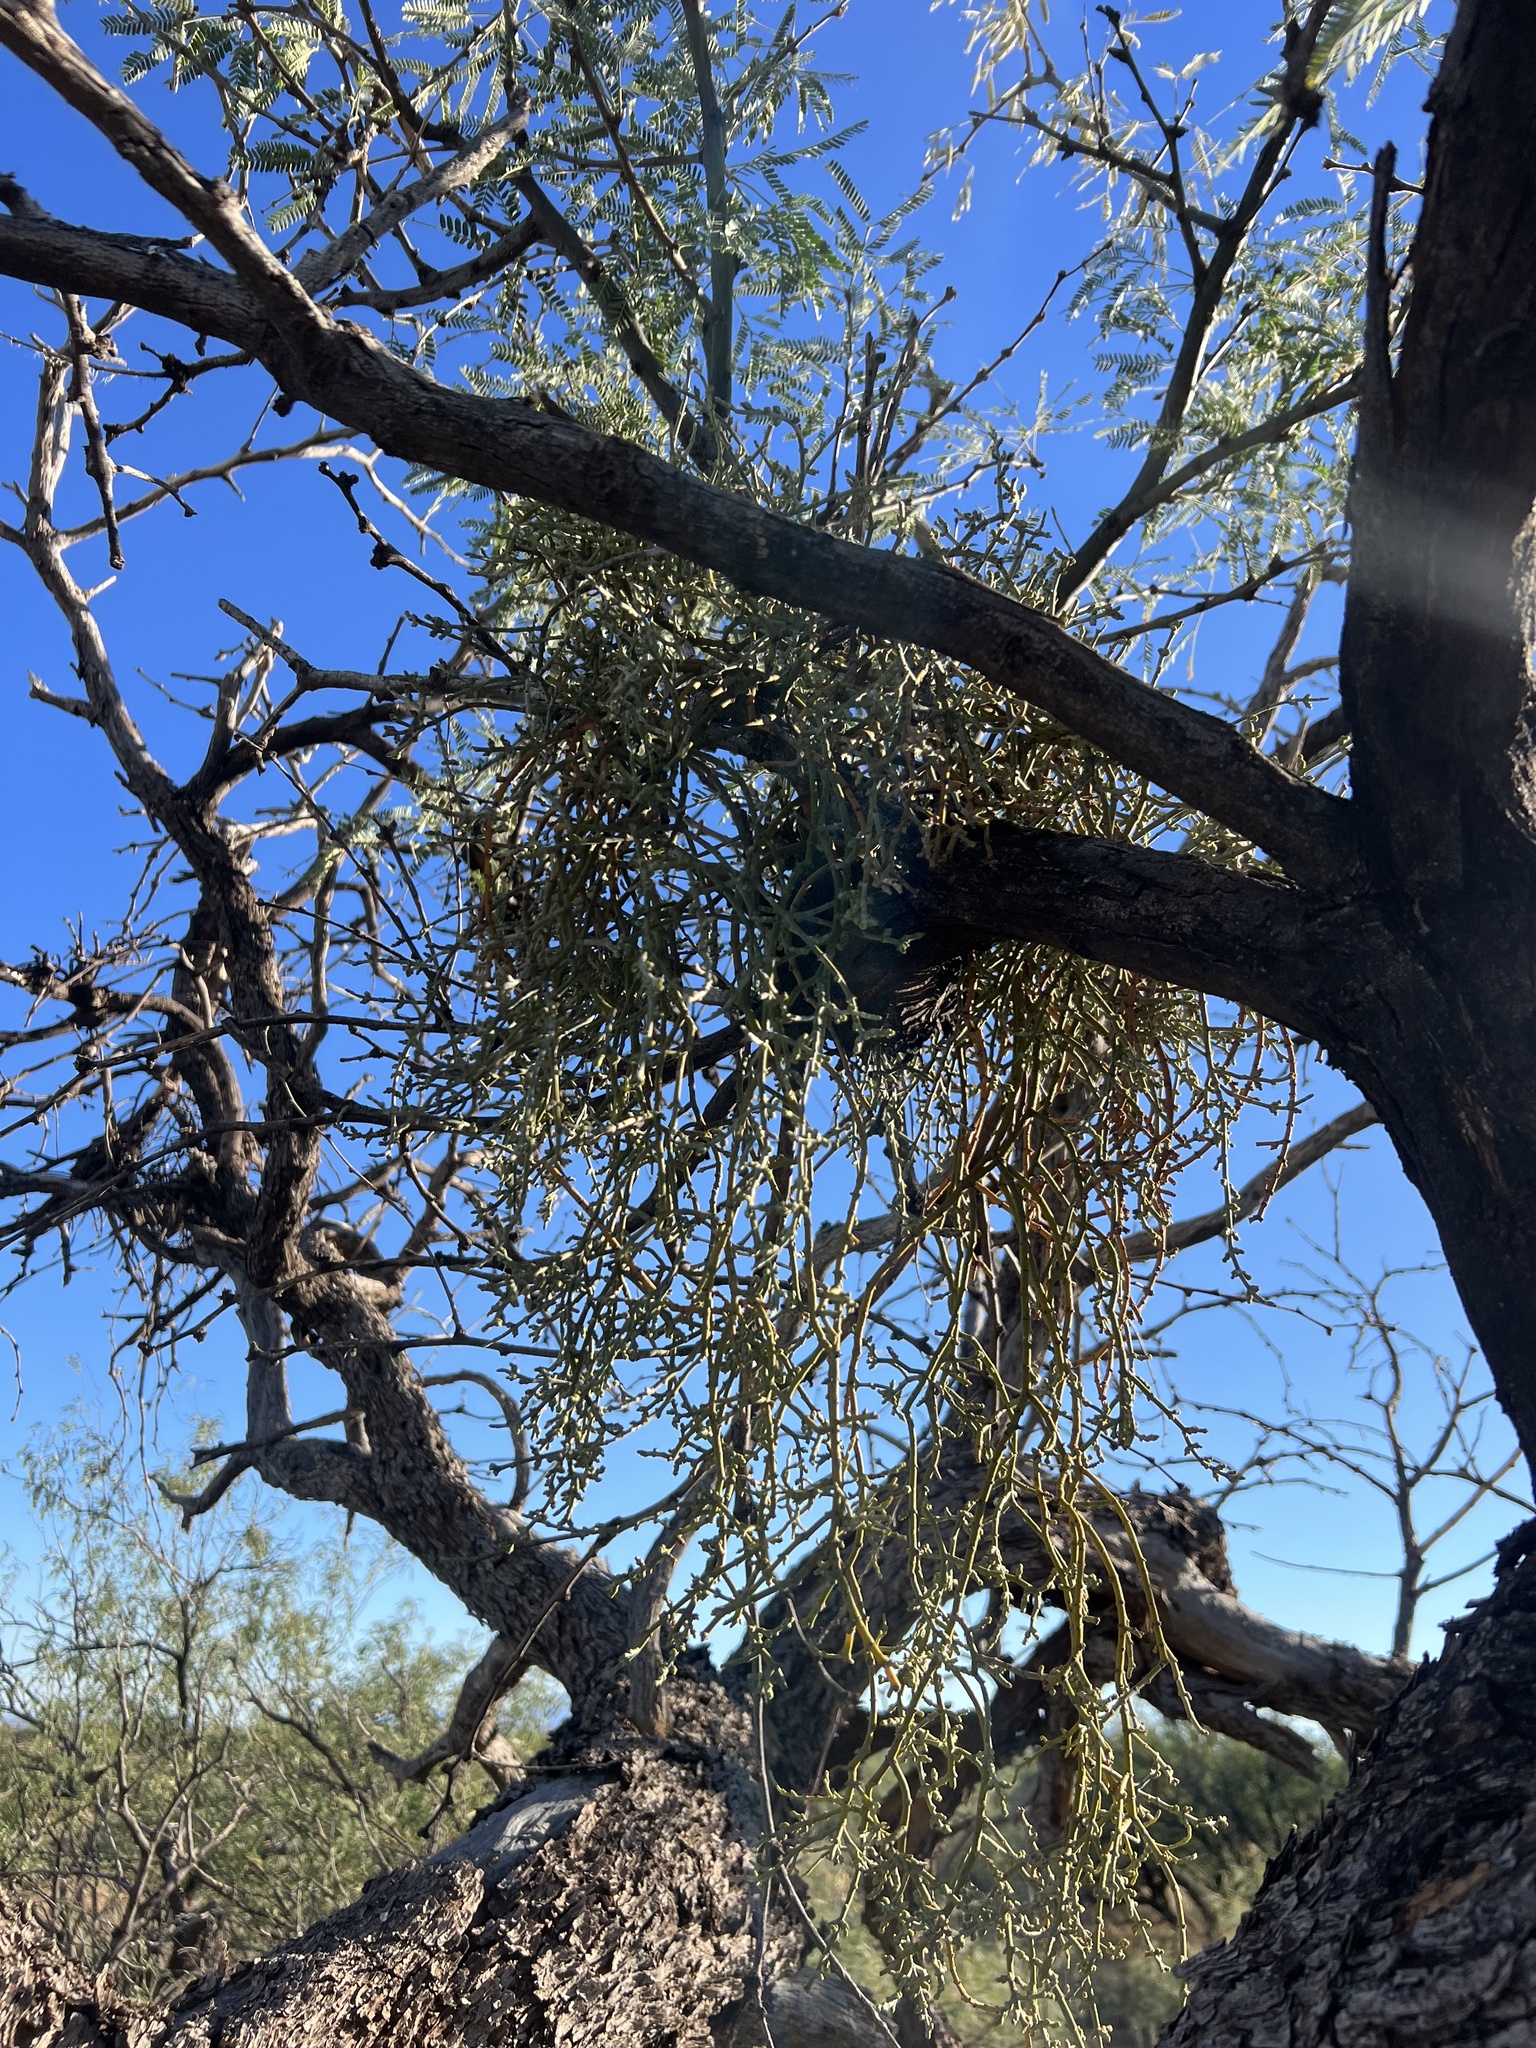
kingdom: Plantae
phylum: Tracheophyta
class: Magnoliopsida
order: Santalales
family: Viscaceae
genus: Phoradendron
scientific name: Phoradendron californicum
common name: Acacia mistletoe
